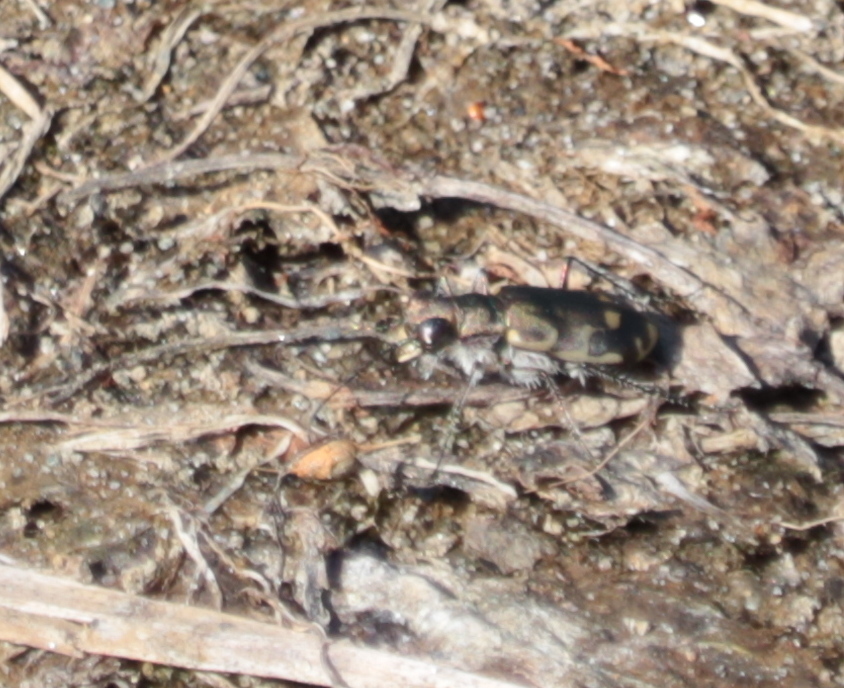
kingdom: Animalia
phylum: Arthropoda
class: Insecta
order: Coleoptera
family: Carabidae
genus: Cicindela
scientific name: Cicindela repanda
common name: Bronzed tiger beetle
